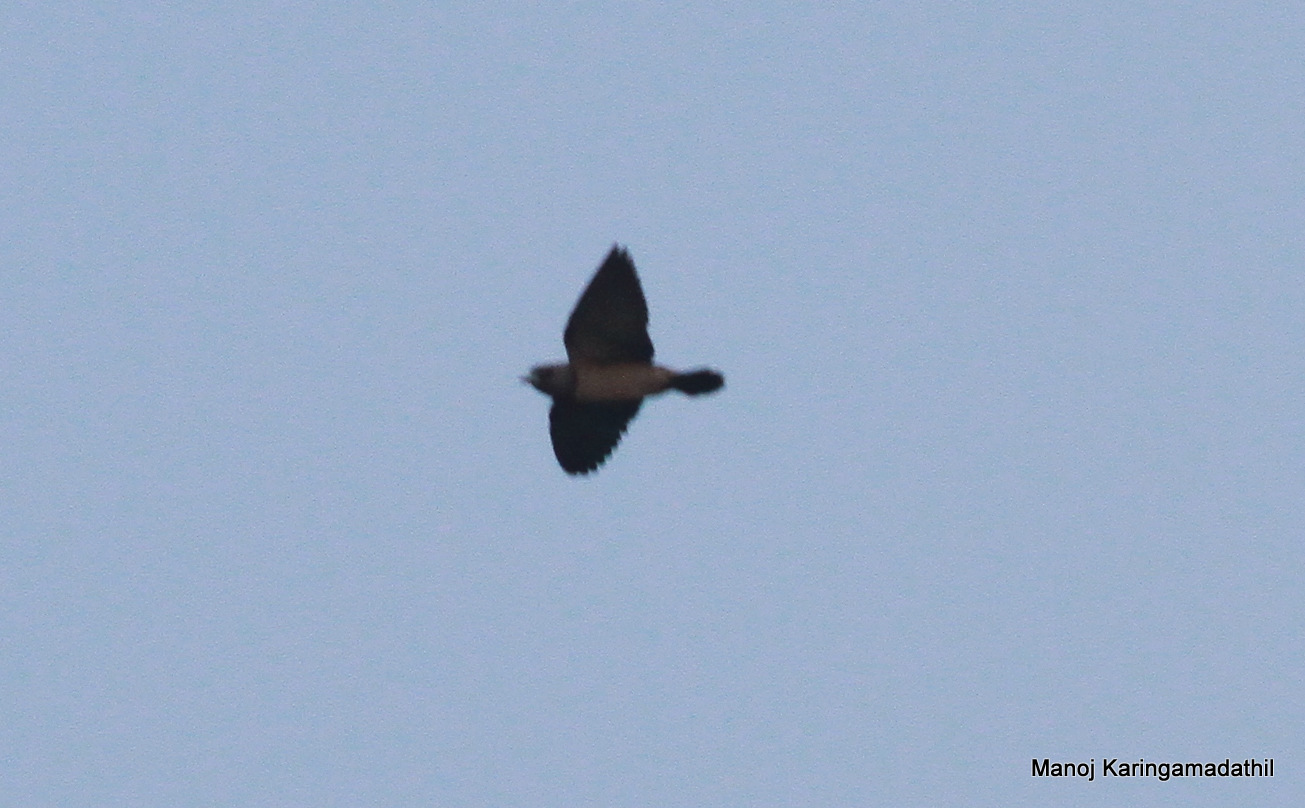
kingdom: Animalia
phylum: Chordata
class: Aves
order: Passeriformes
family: Artamidae
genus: Artamus
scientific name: Artamus fuscus
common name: Ashy woodswallow
